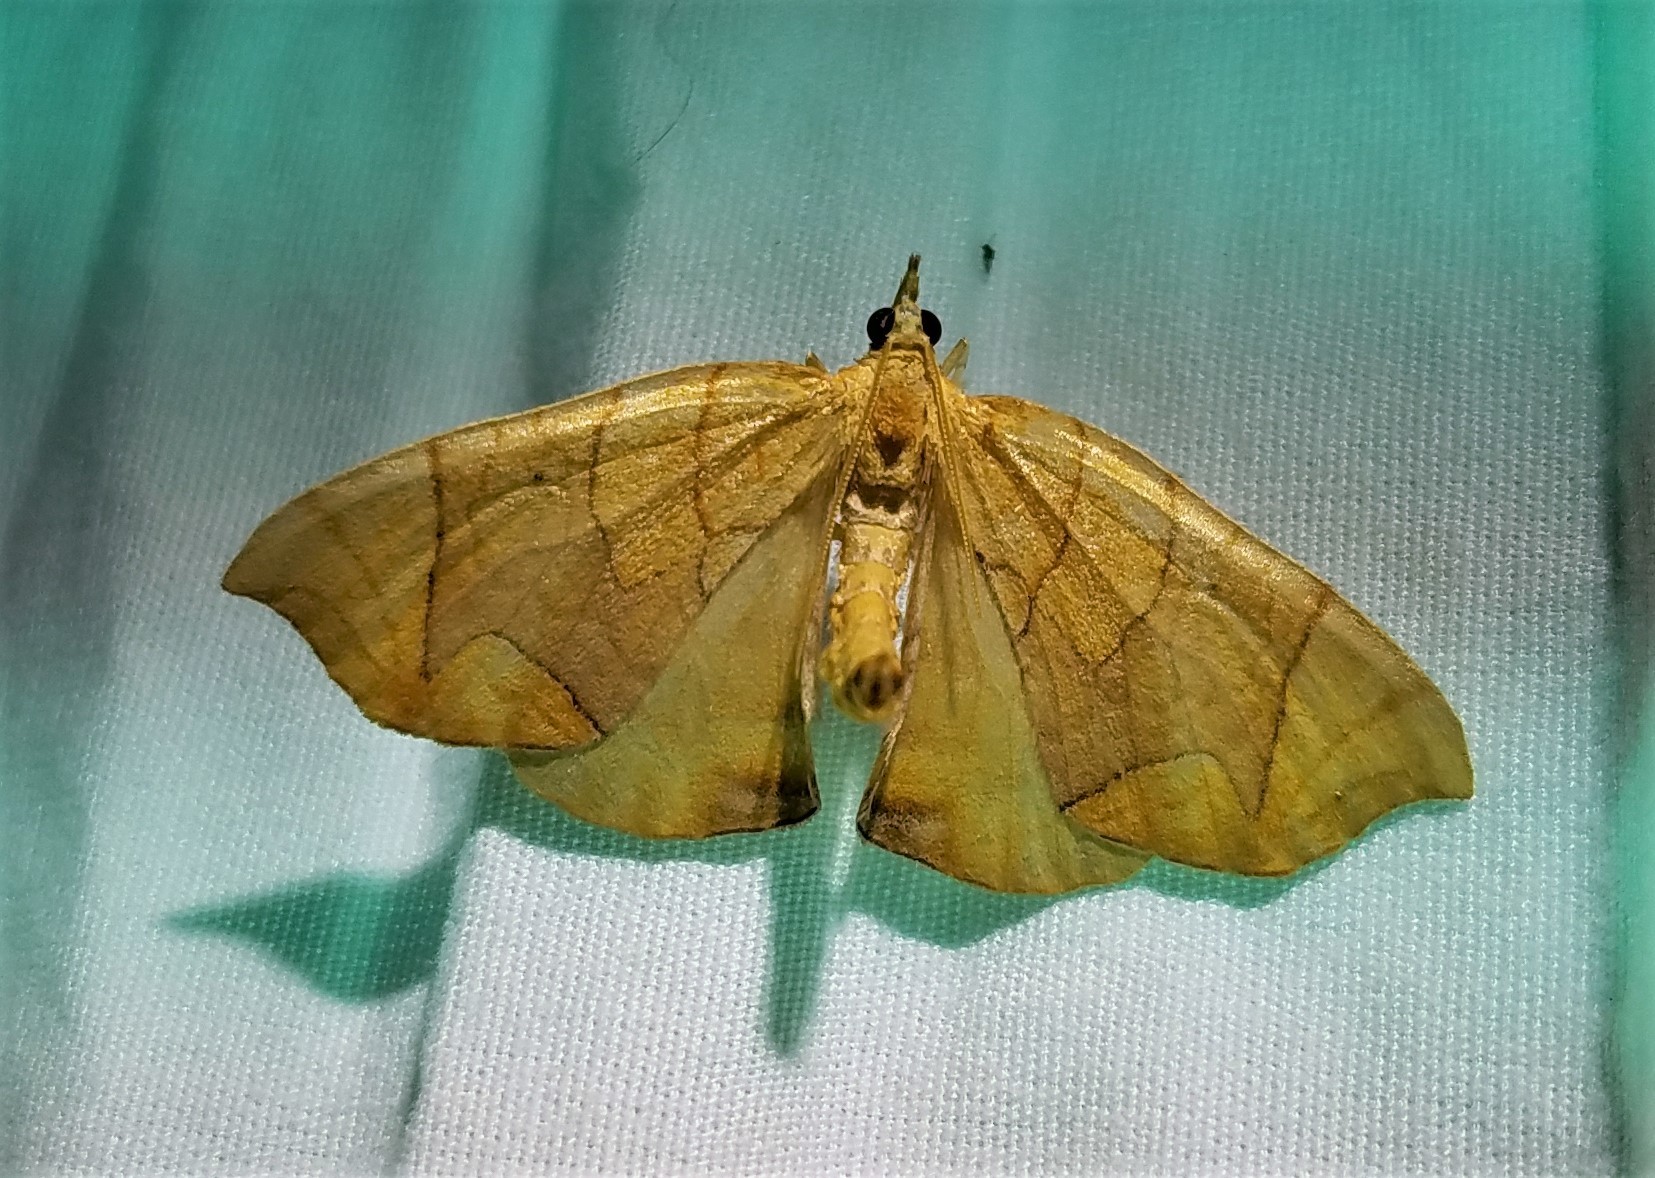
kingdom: Animalia
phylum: Arthropoda
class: Insecta
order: Lepidoptera
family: Geometridae
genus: Eulithis
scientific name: Eulithis
